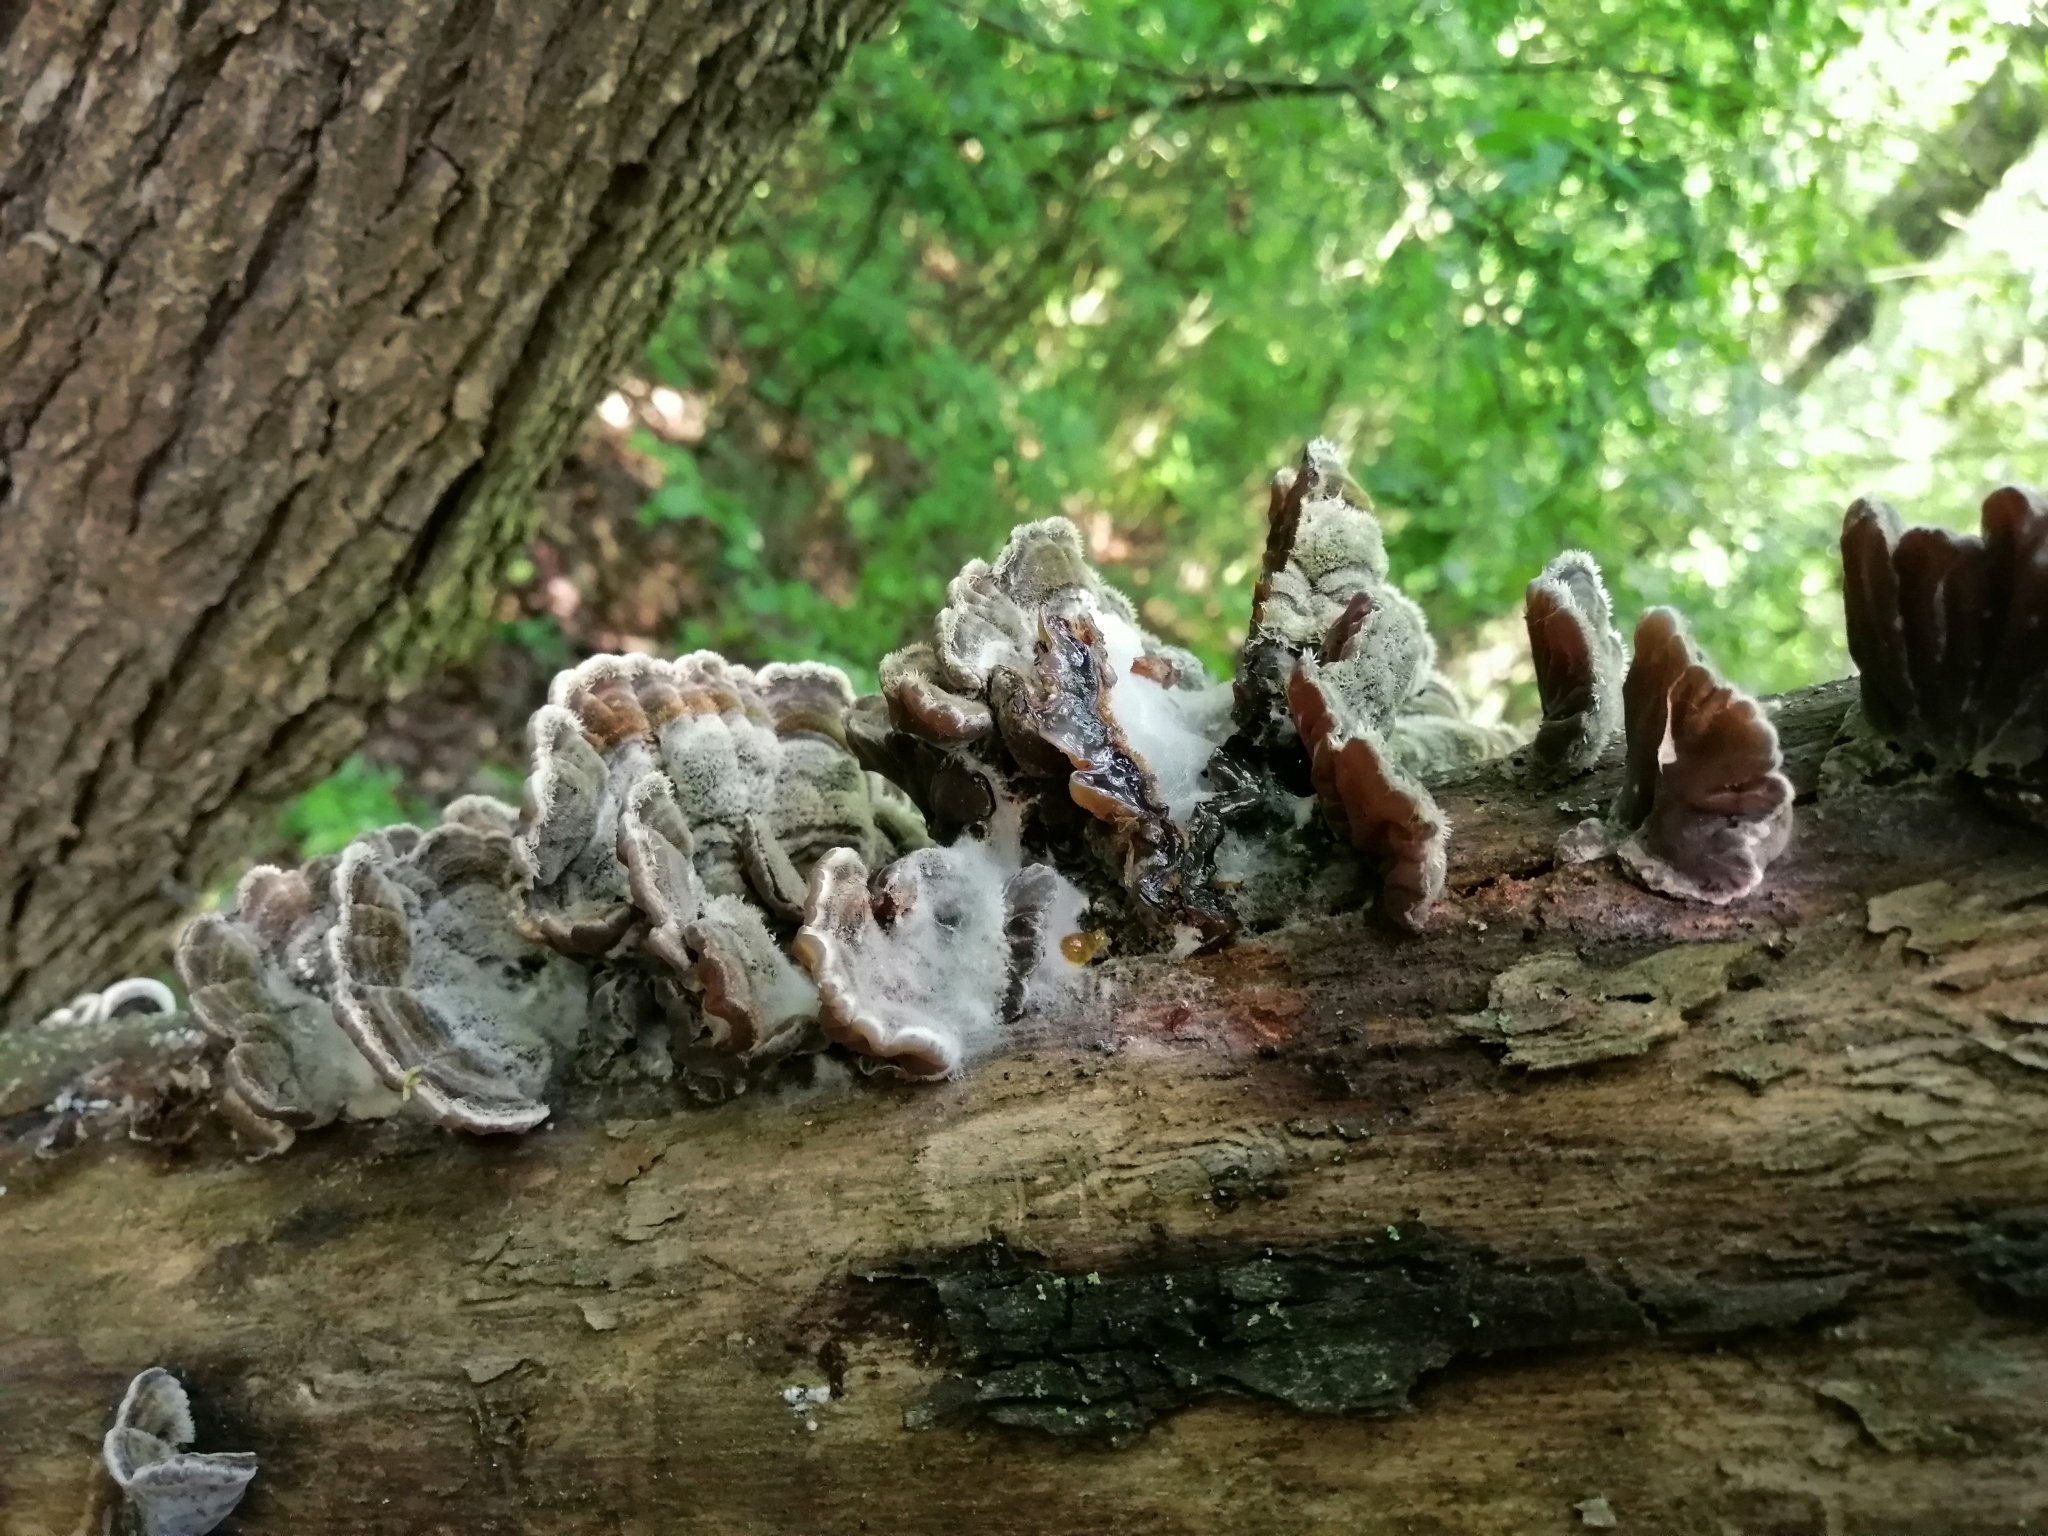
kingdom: Fungi
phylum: Basidiomycota
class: Agaricomycetes
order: Auriculariales
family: Auriculariaceae
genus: Auricularia
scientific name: Auricularia mesenterica
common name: Tripe fungus
